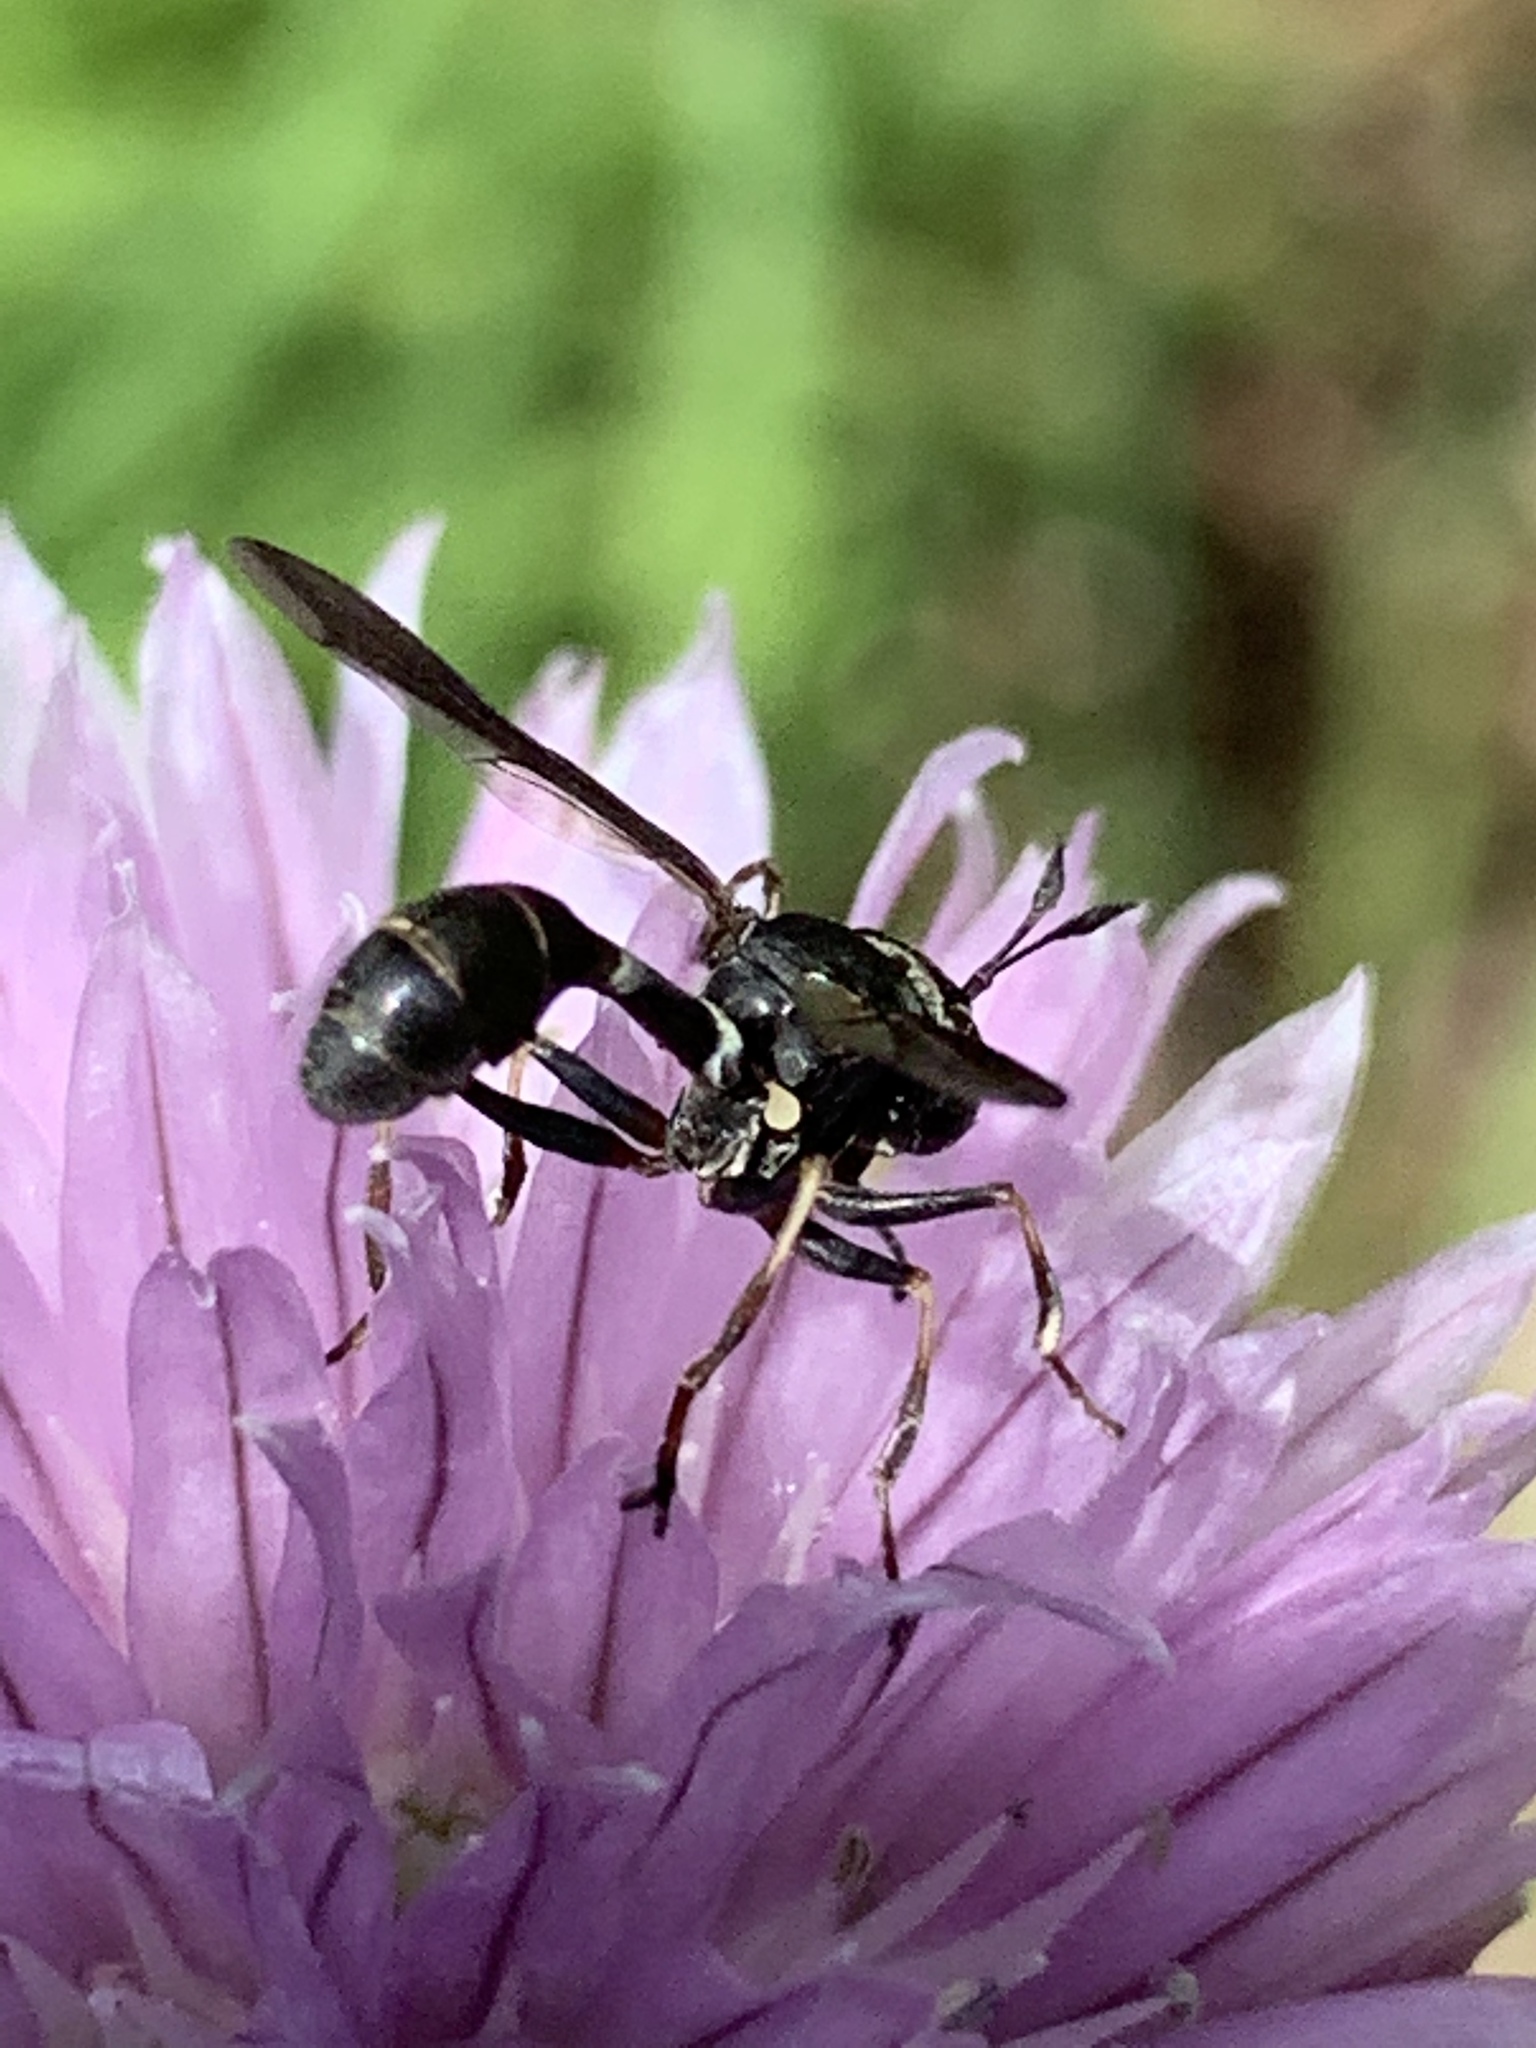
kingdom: Animalia
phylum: Arthropoda
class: Insecta
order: Diptera
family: Conopidae
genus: Physocephala
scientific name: Physocephala tibialis
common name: Common eastern physocephala
